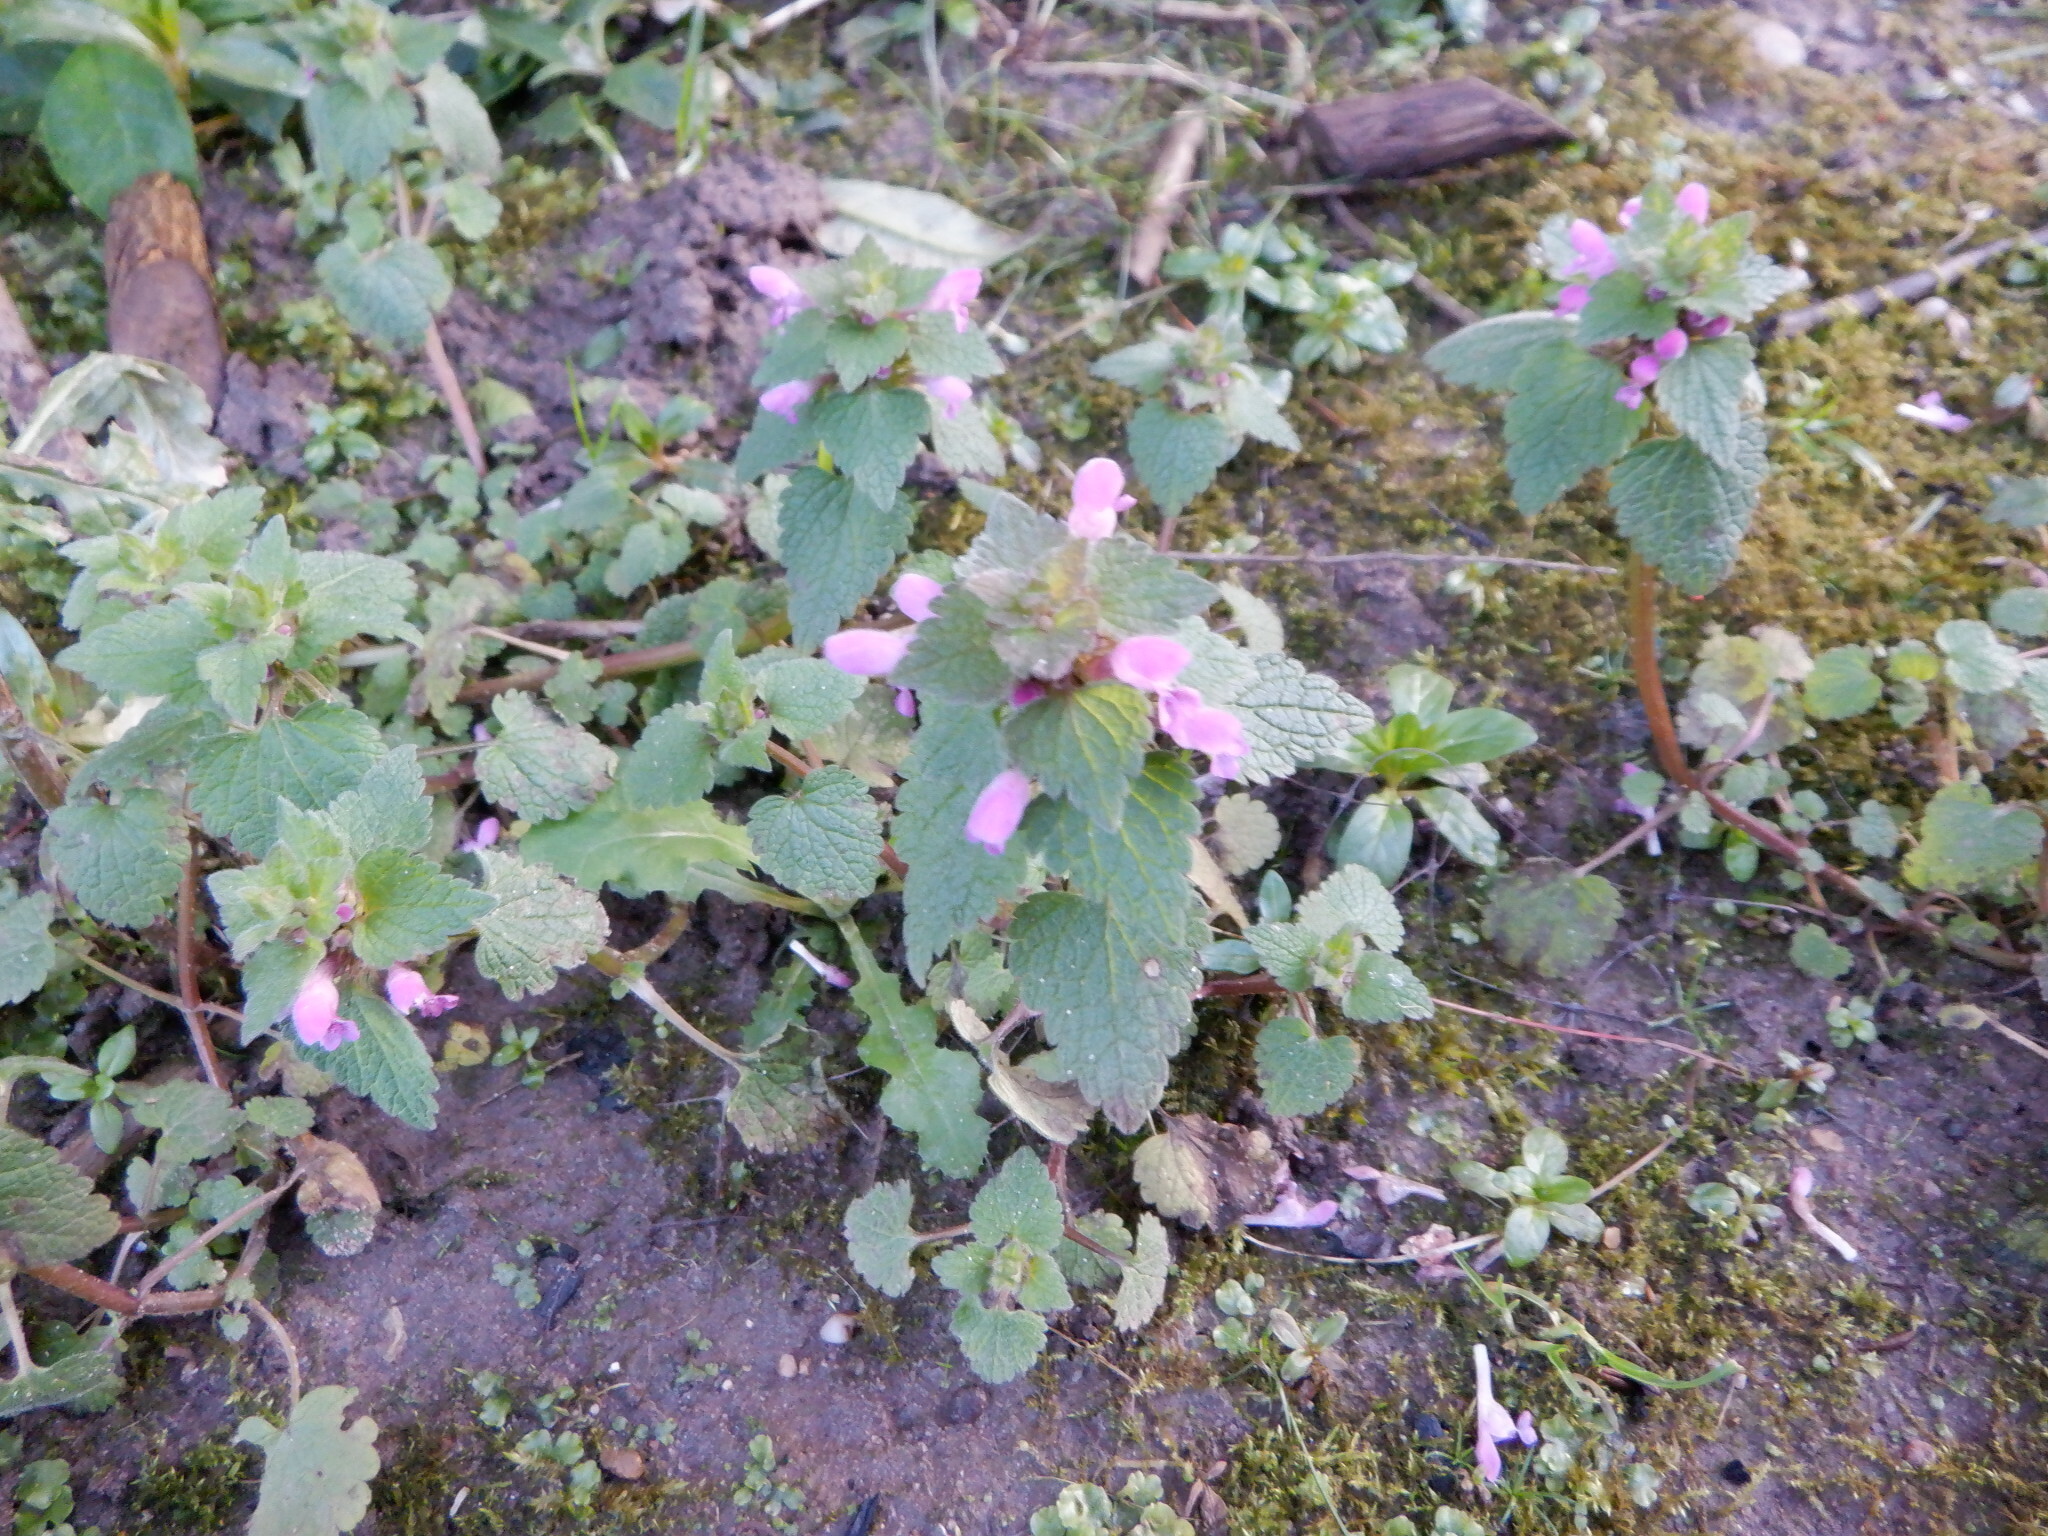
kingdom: Plantae
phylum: Tracheophyta
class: Magnoliopsida
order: Lamiales
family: Lamiaceae
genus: Lamium
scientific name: Lamium purpureum
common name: Red dead-nettle
